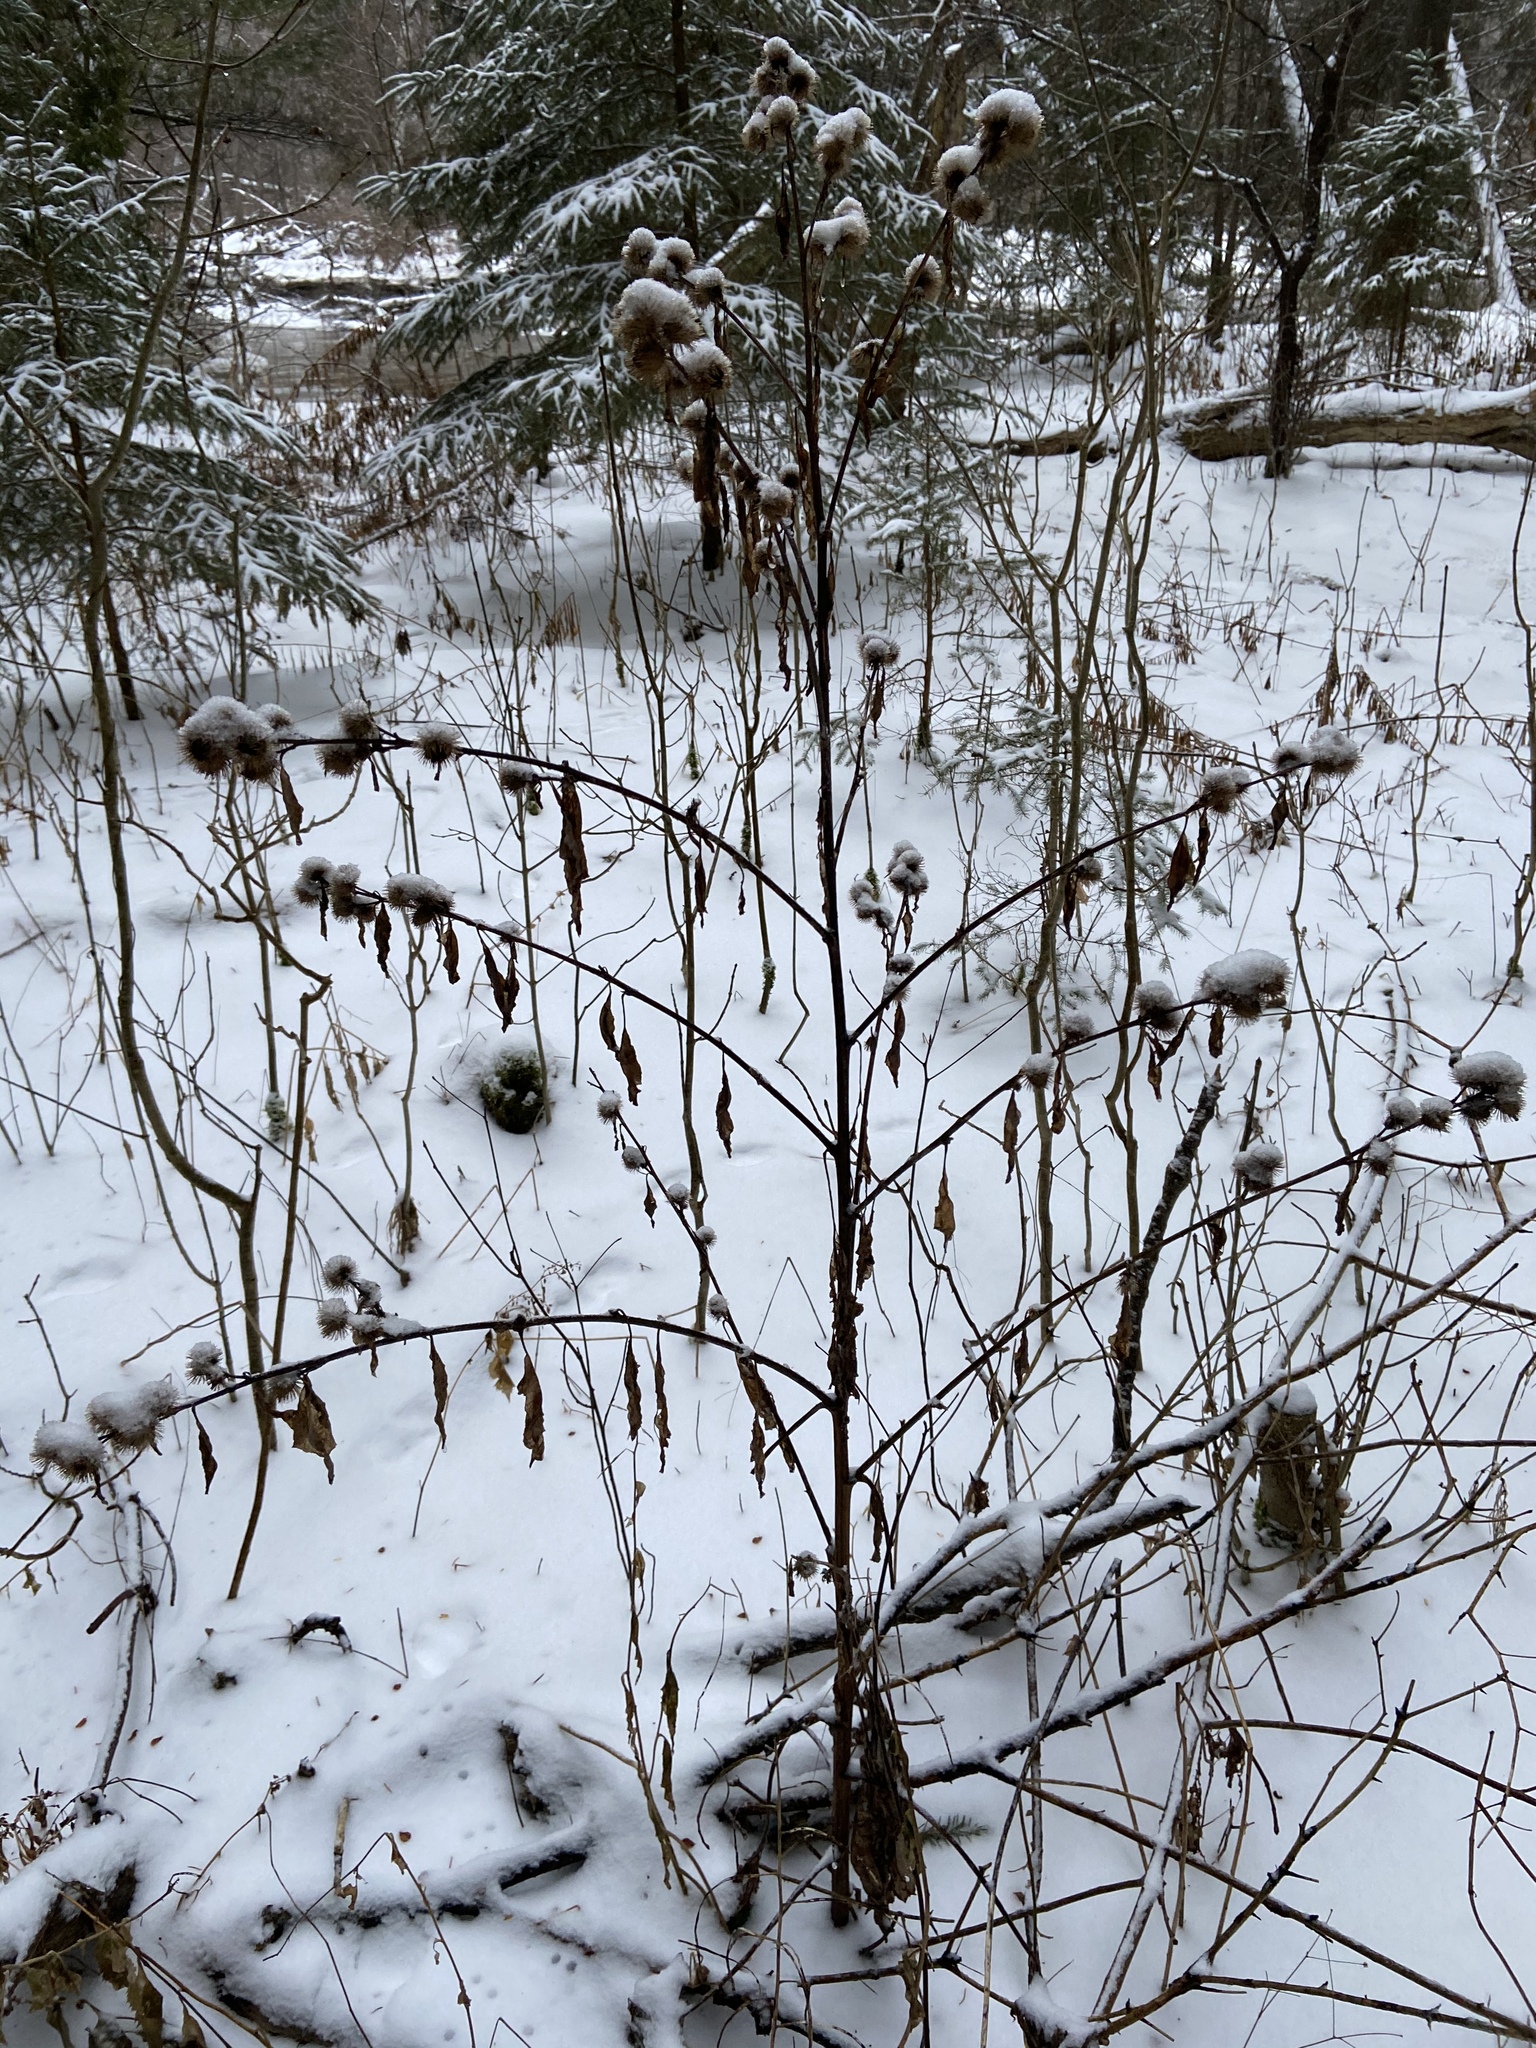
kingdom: Plantae
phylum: Tracheophyta
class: Magnoliopsida
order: Asterales
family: Asteraceae
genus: Arctium
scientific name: Arctium minus
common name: Lesser burdock
